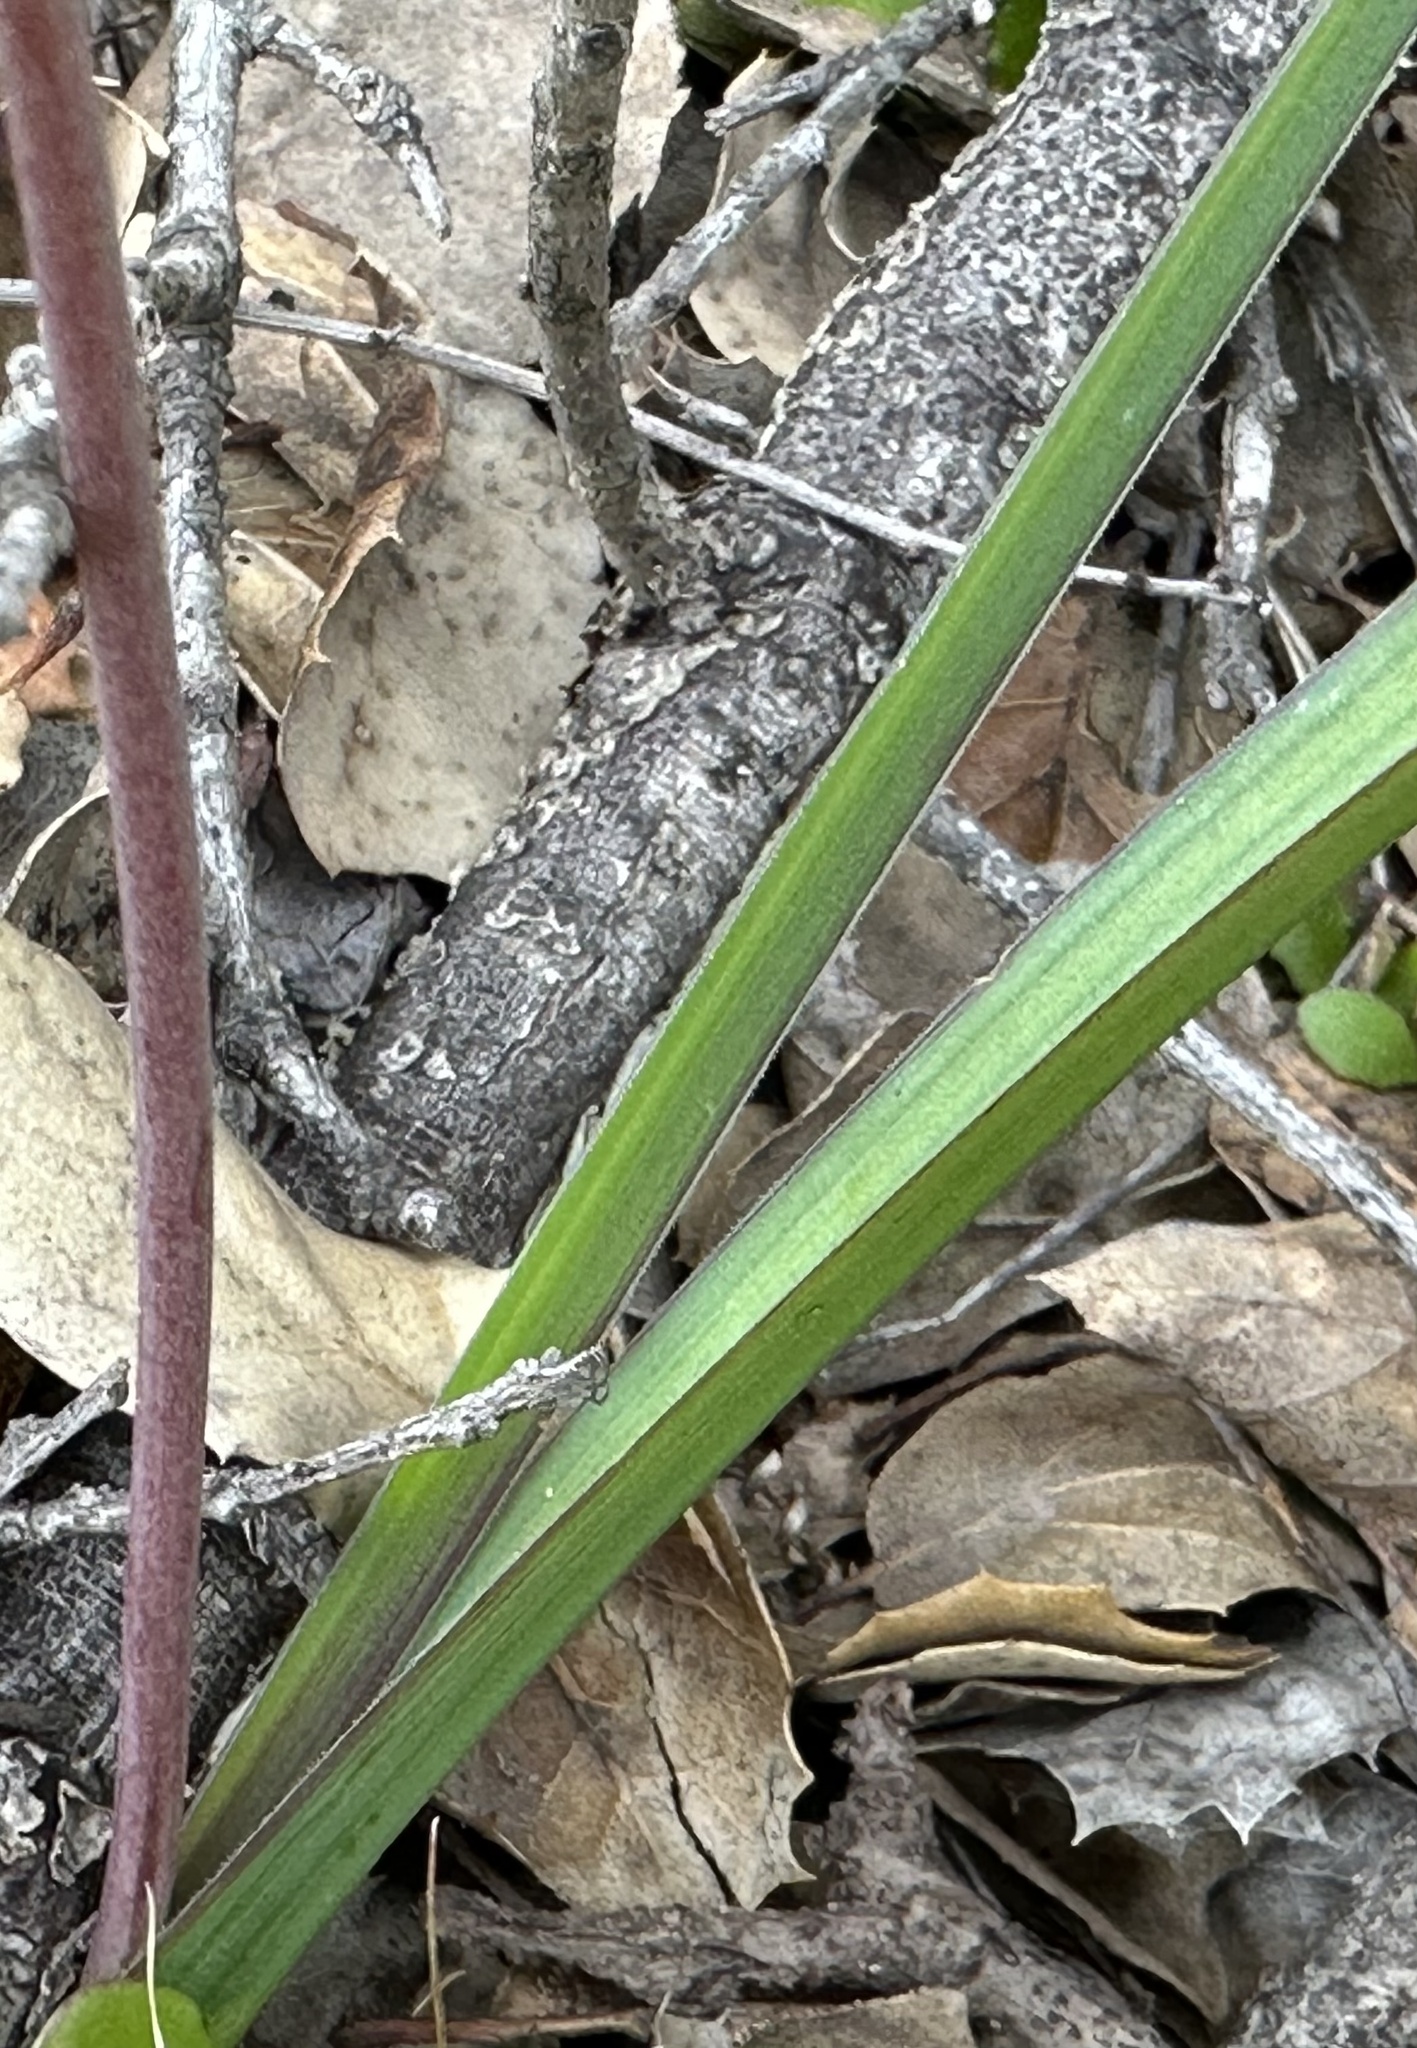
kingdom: Plantae
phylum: Tracheophyta
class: Liliopsida
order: Asparagales
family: Asparagaceae
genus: Dipterostemon
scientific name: Dipterostemon capitatus
